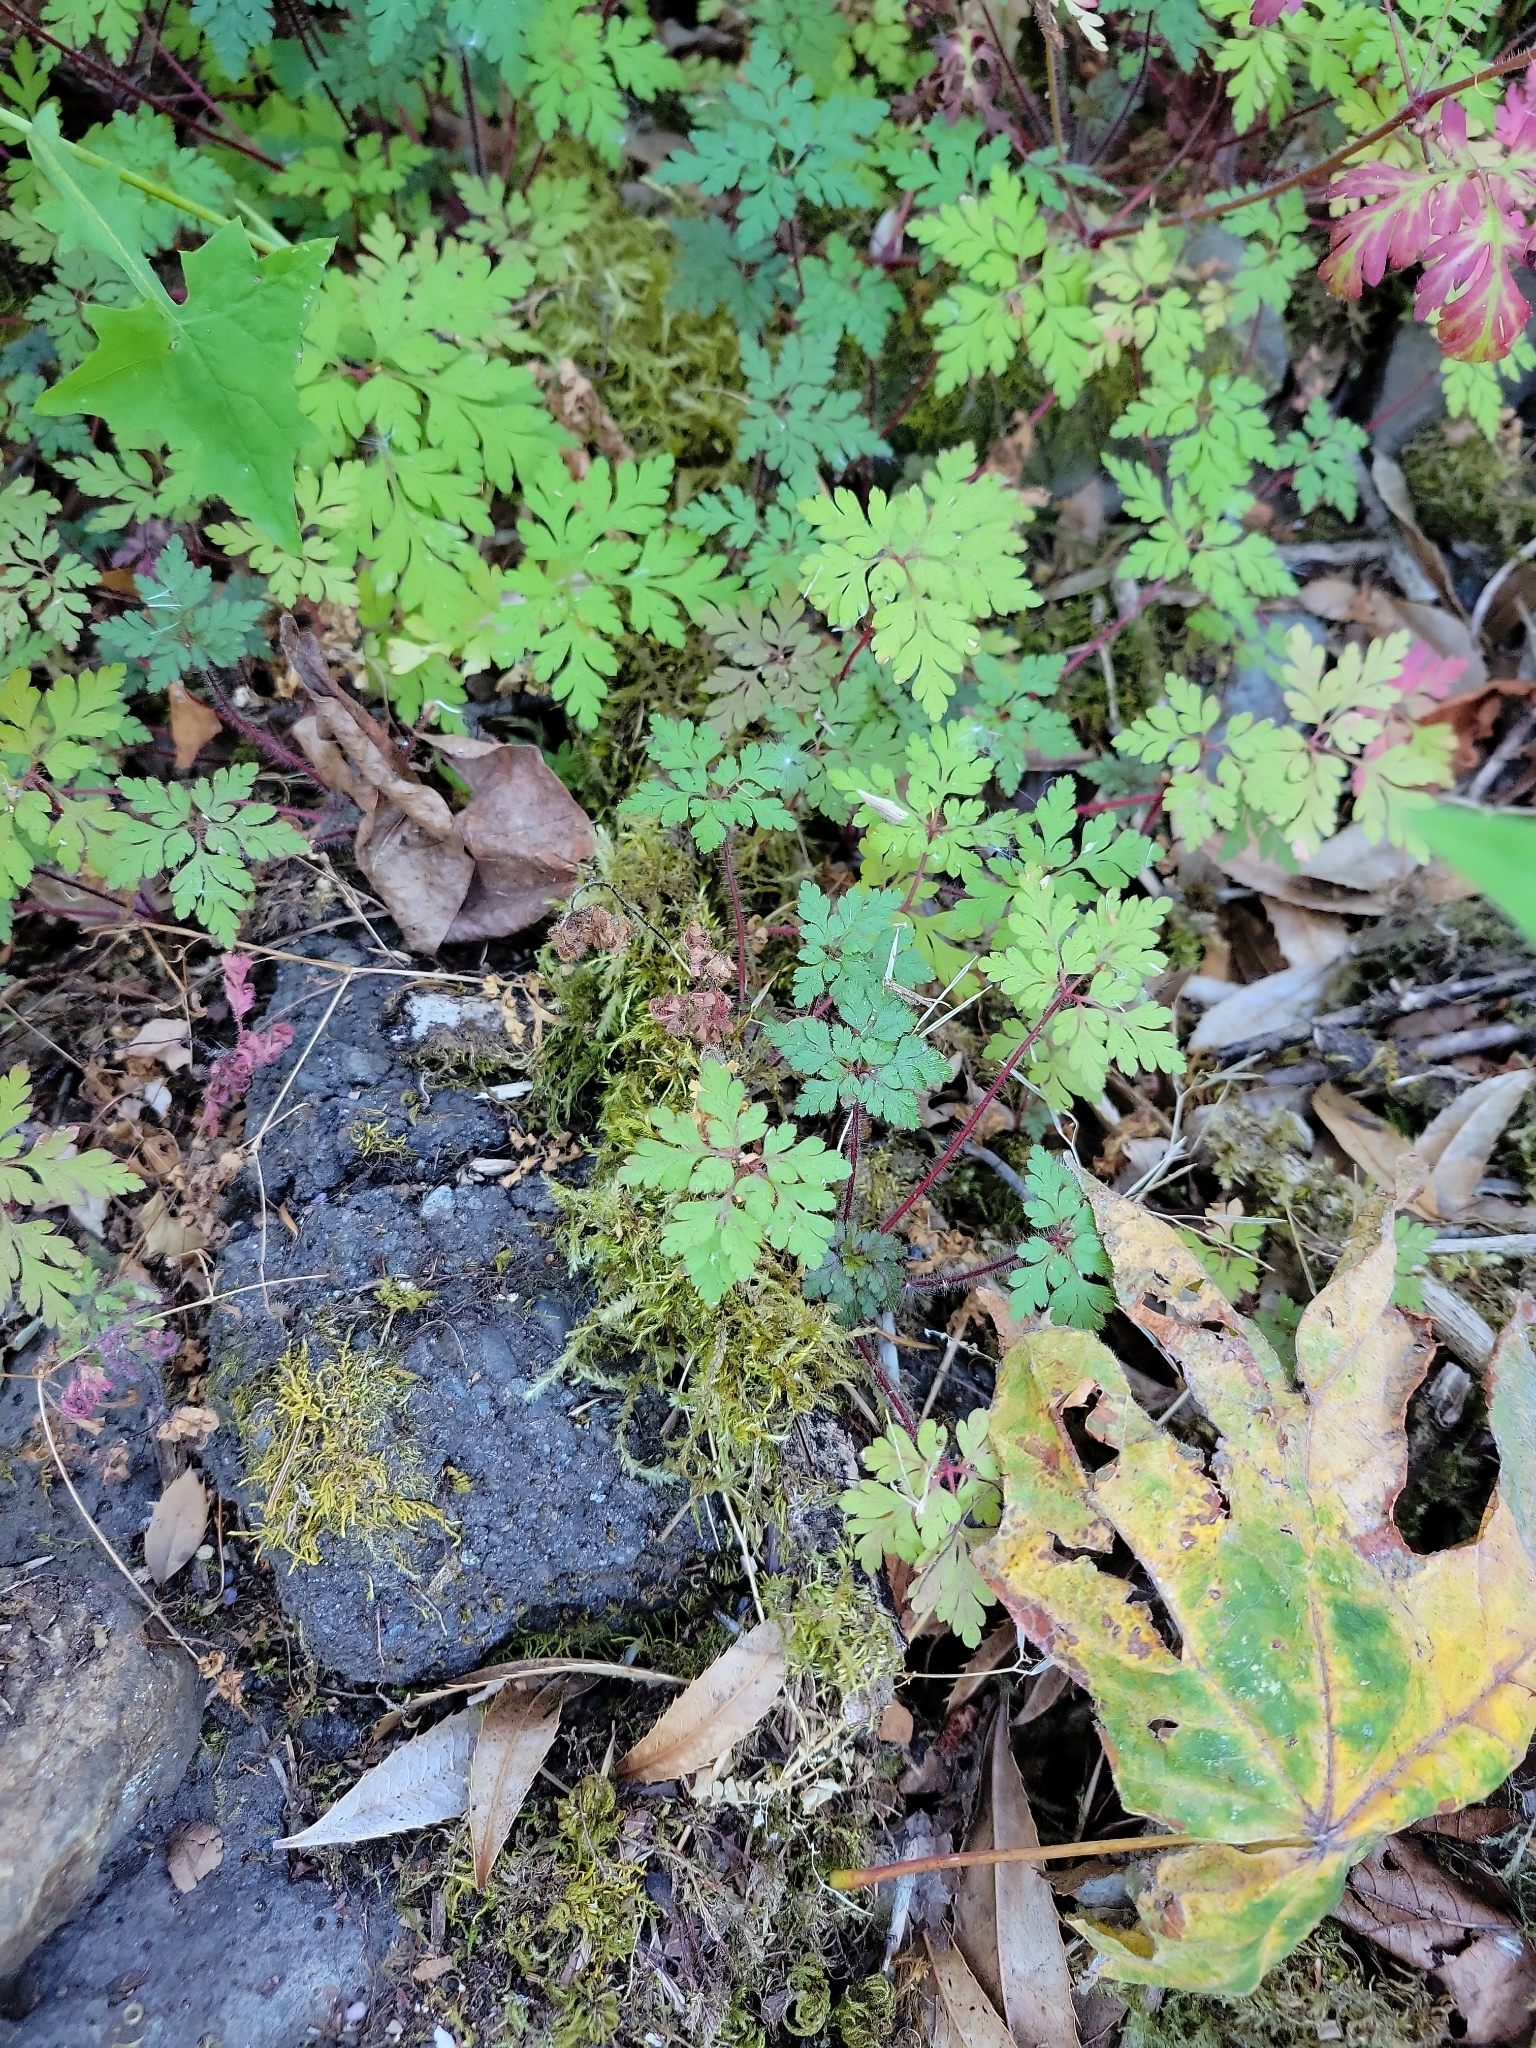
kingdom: Plantae
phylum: Tracheophyta
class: Magnoliopsida
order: Geraniales
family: Geraniaceae
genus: Geranium
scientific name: Geranium robertianum
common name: Herb-robert
